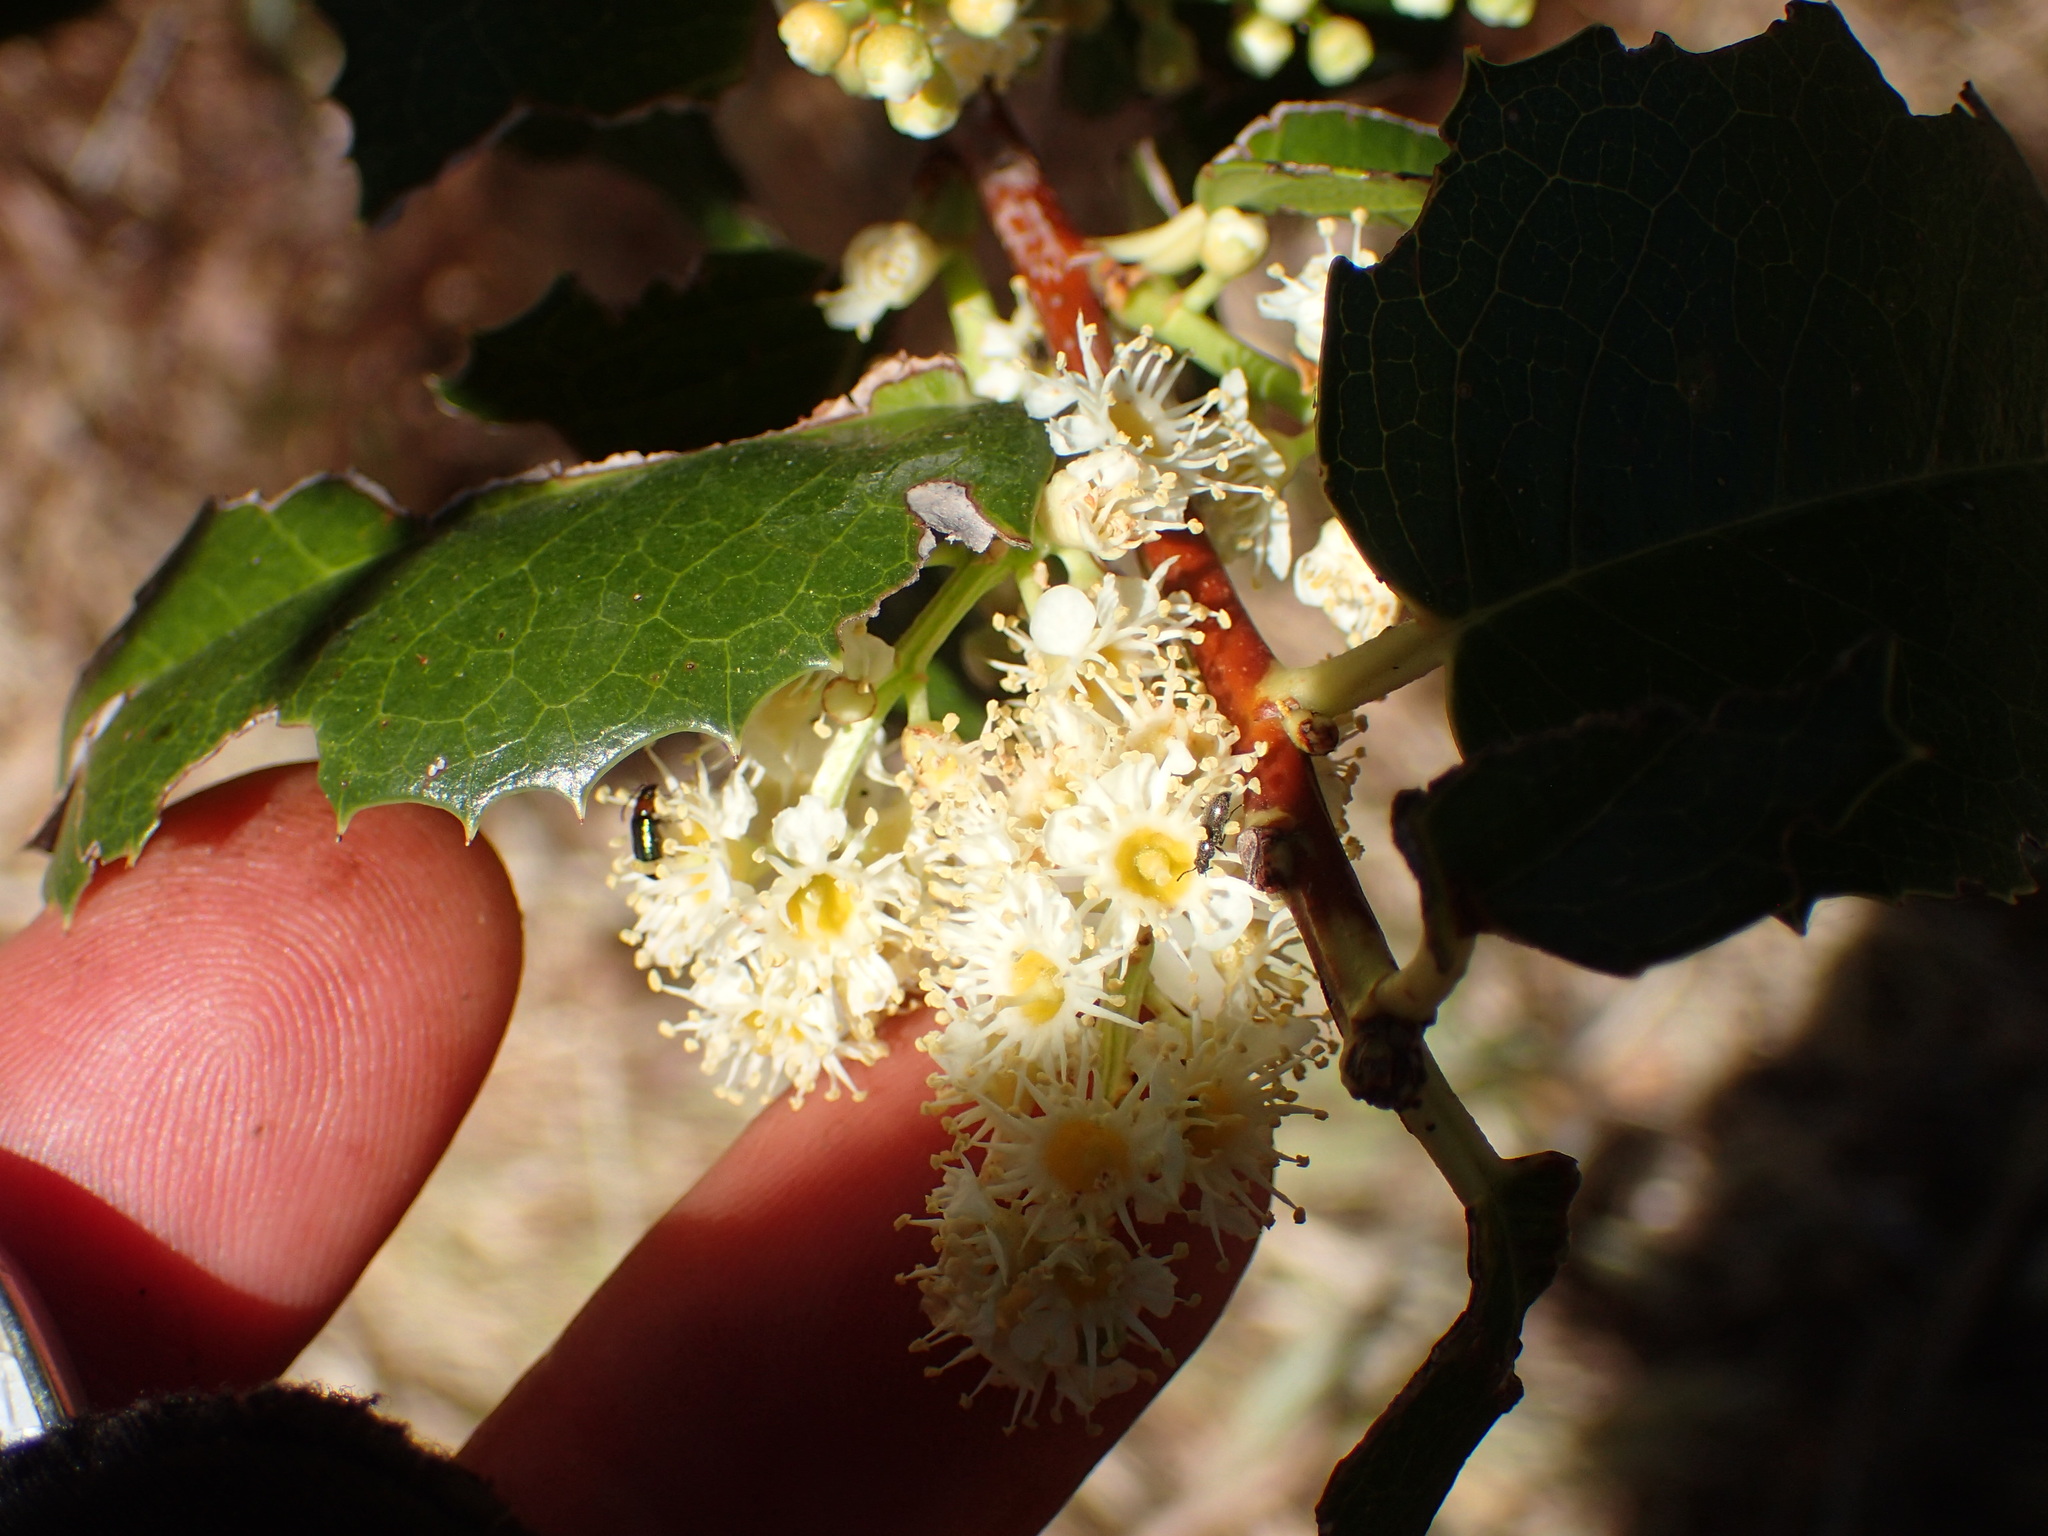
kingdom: Plantae
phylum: Tracheophyta
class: Magnoliopsida
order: Rosales
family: Rosaceae
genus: Prunus
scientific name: Prunus ilicifolia
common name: Hollyleaf cherry
